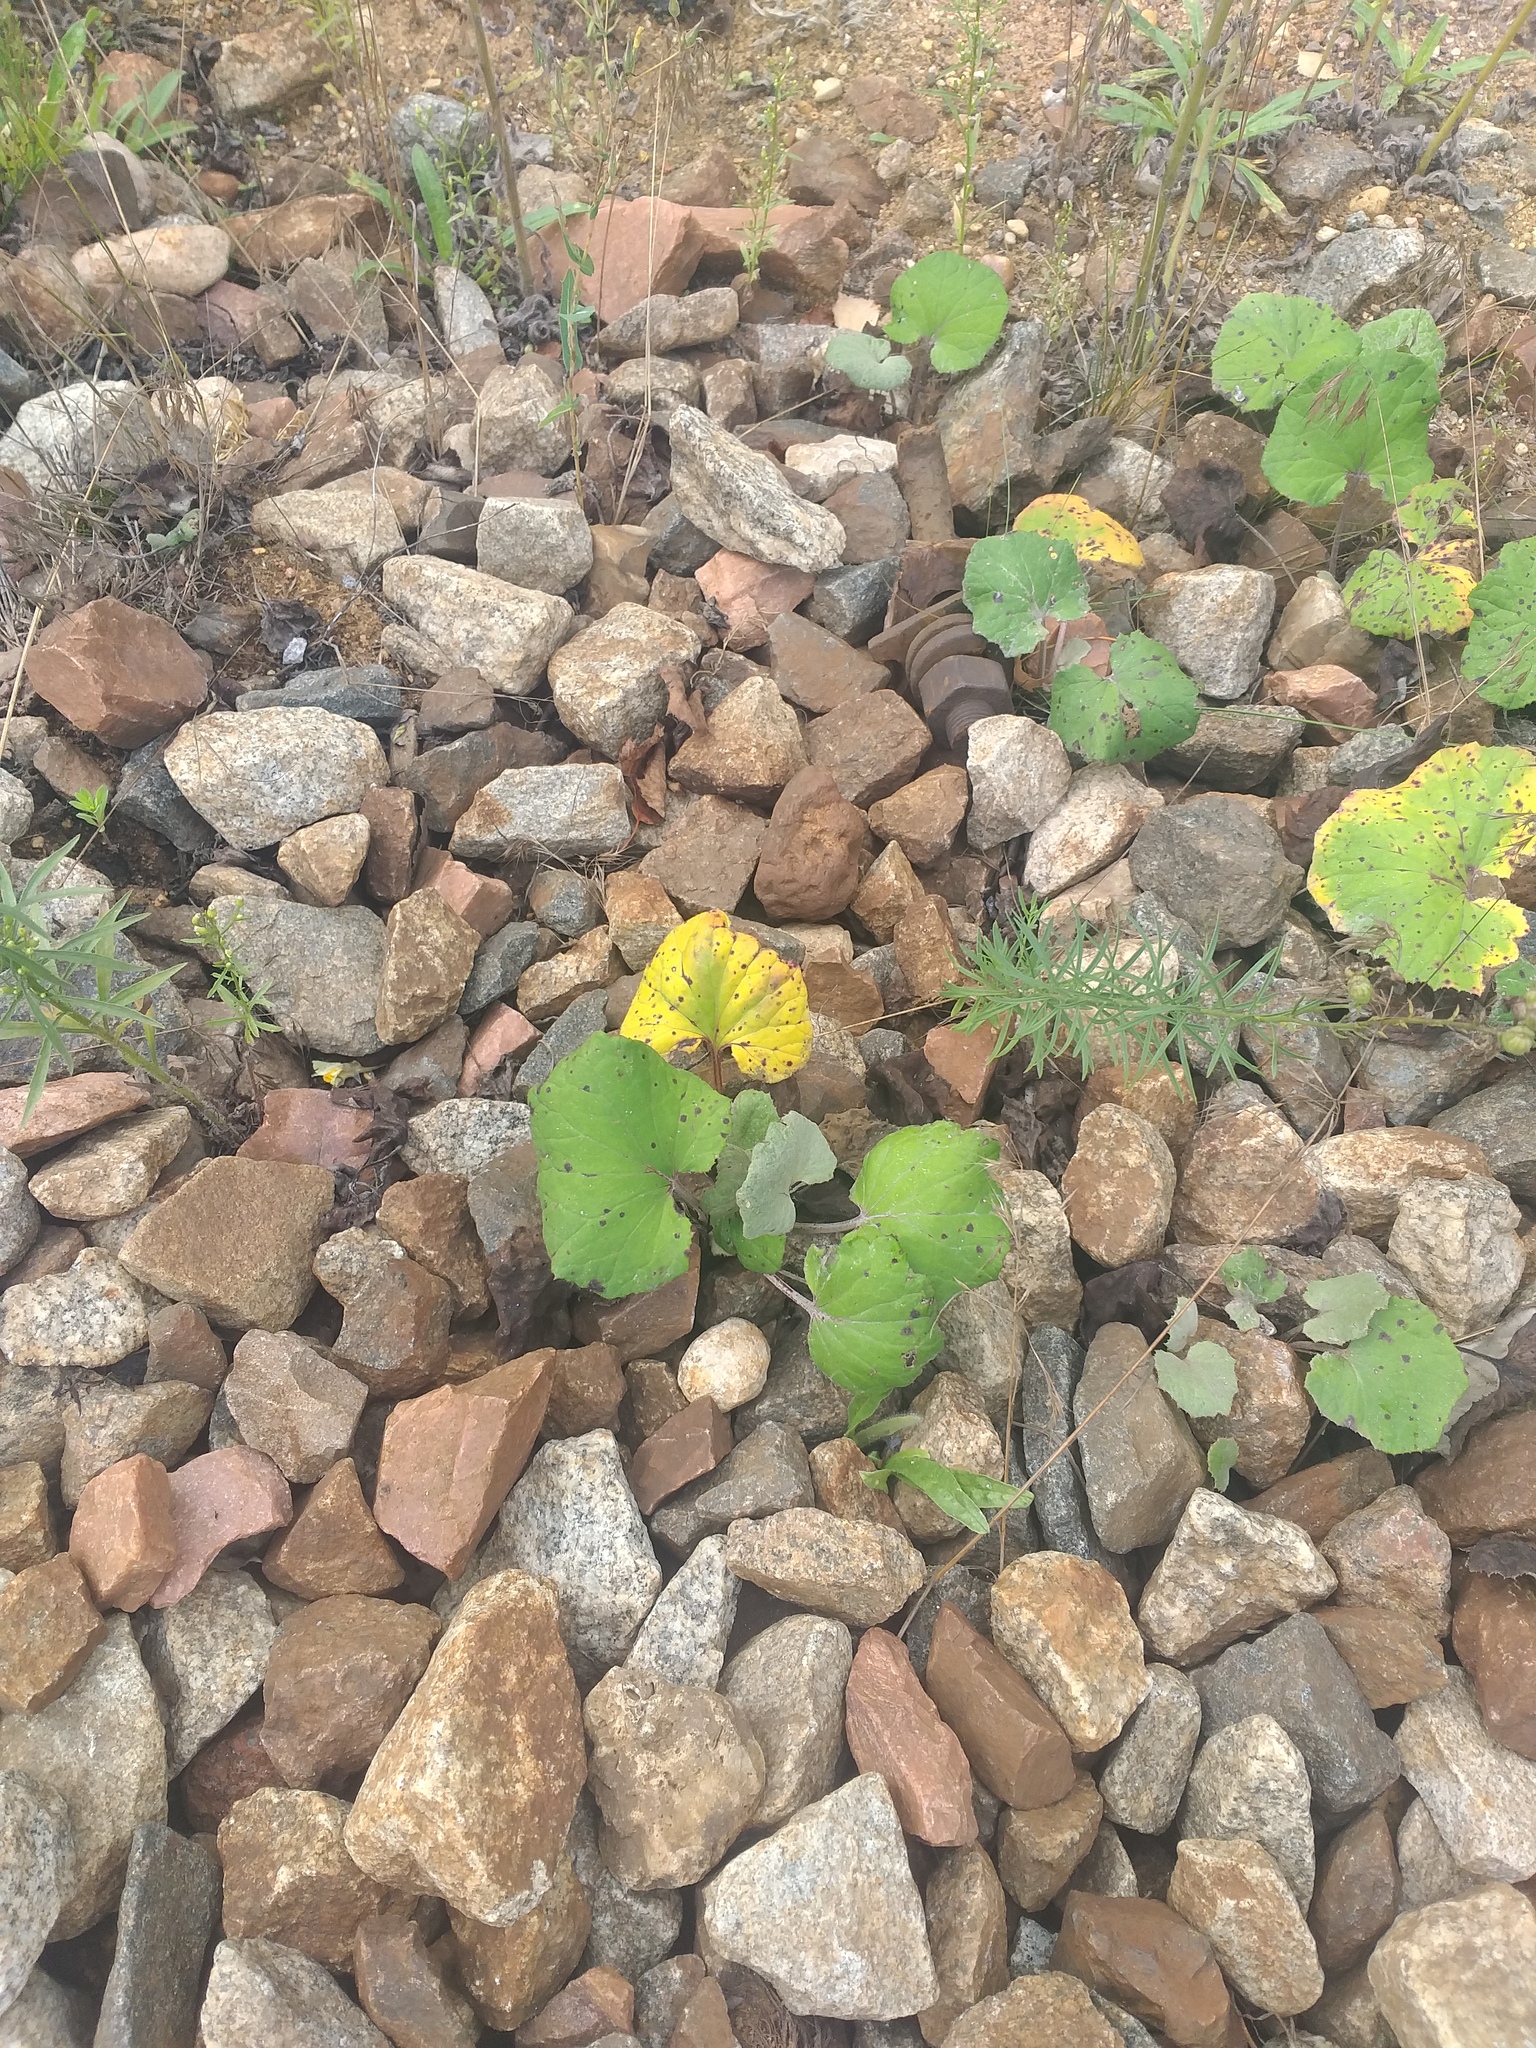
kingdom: Plantae
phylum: Tracheophyta
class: Magnoliopsida
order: Asterales
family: Asteraceae
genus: Tussilago
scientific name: Tussilago farfara
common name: Coltsfoot
